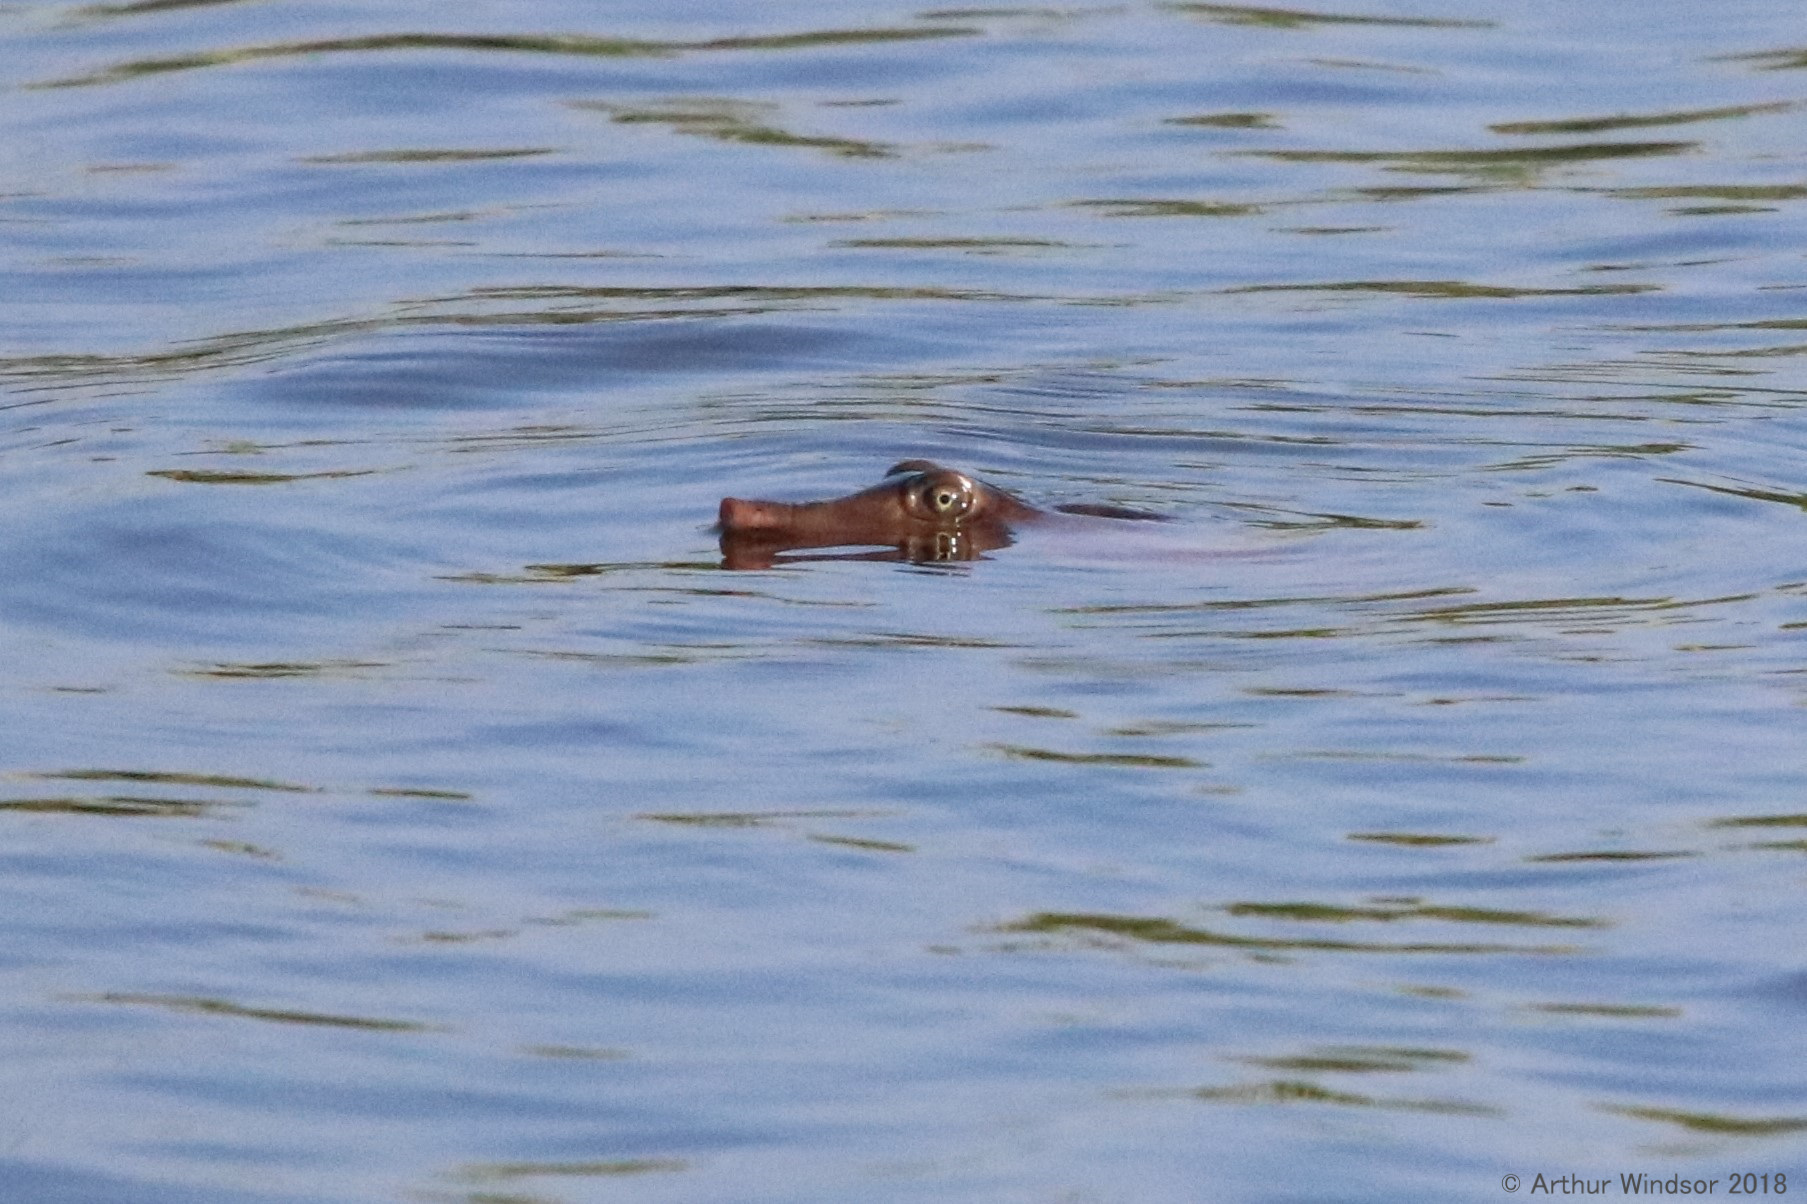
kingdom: Animalia
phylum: Chordata
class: Testudines
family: Trionychidae
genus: Apalone
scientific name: Apalone ferox
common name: Florida softshell turtle
